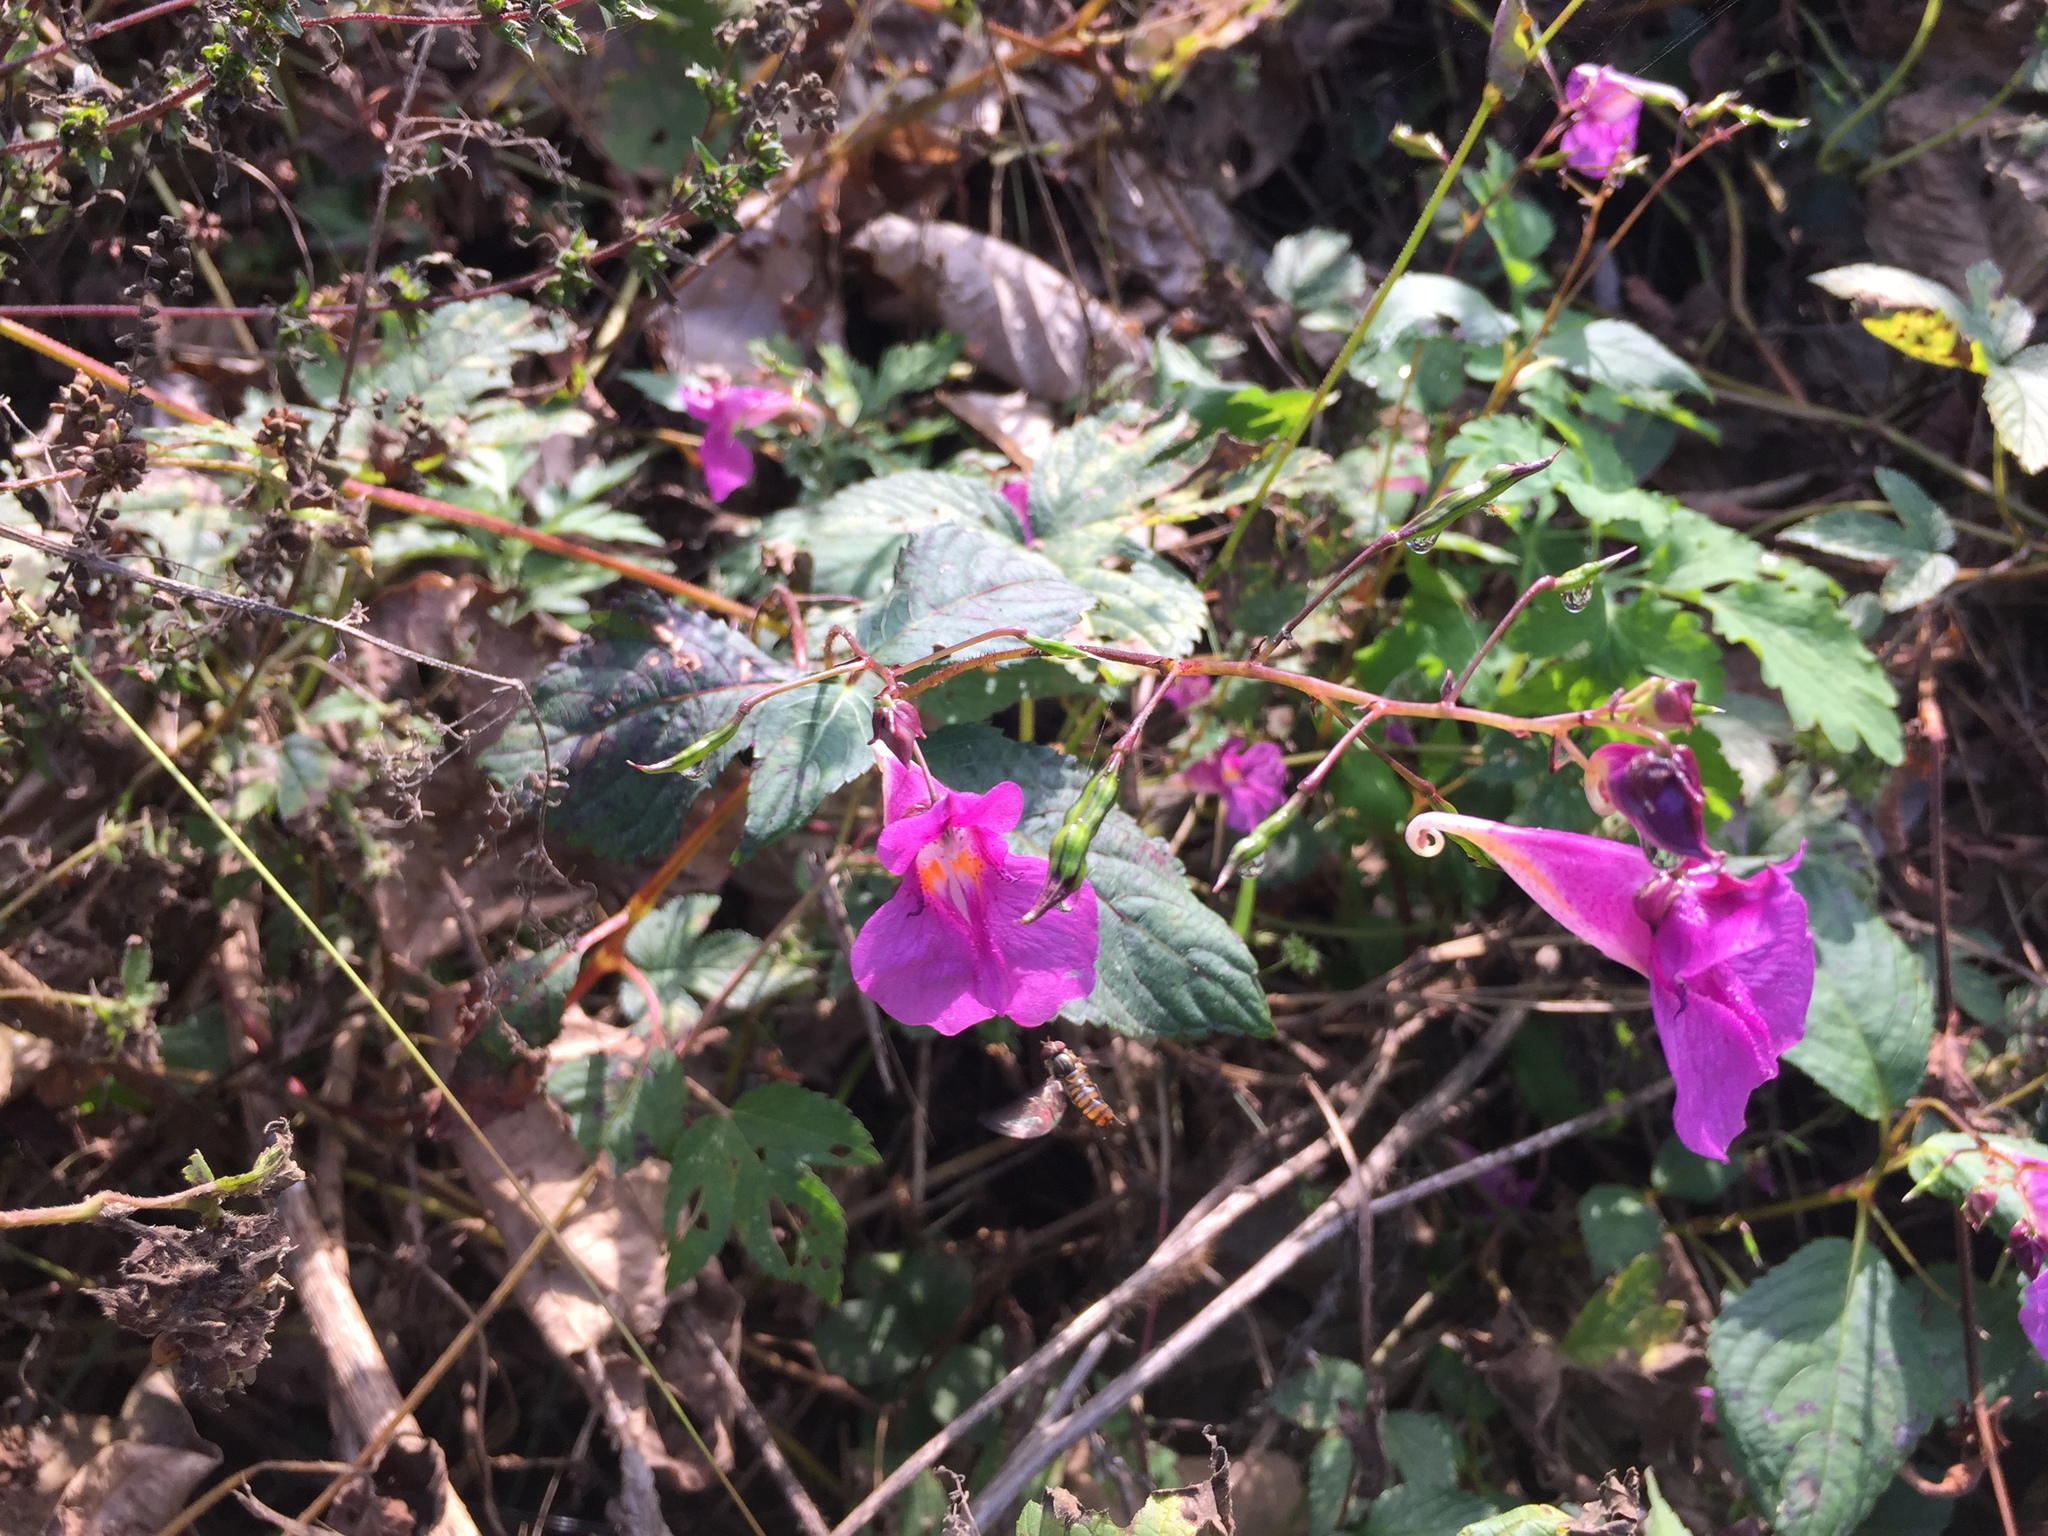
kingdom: Plantae
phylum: Tracheophyta
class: Magnoliopsida
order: Ericales
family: Balsaminaceae
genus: Impatiens
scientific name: Impatiens textorii
